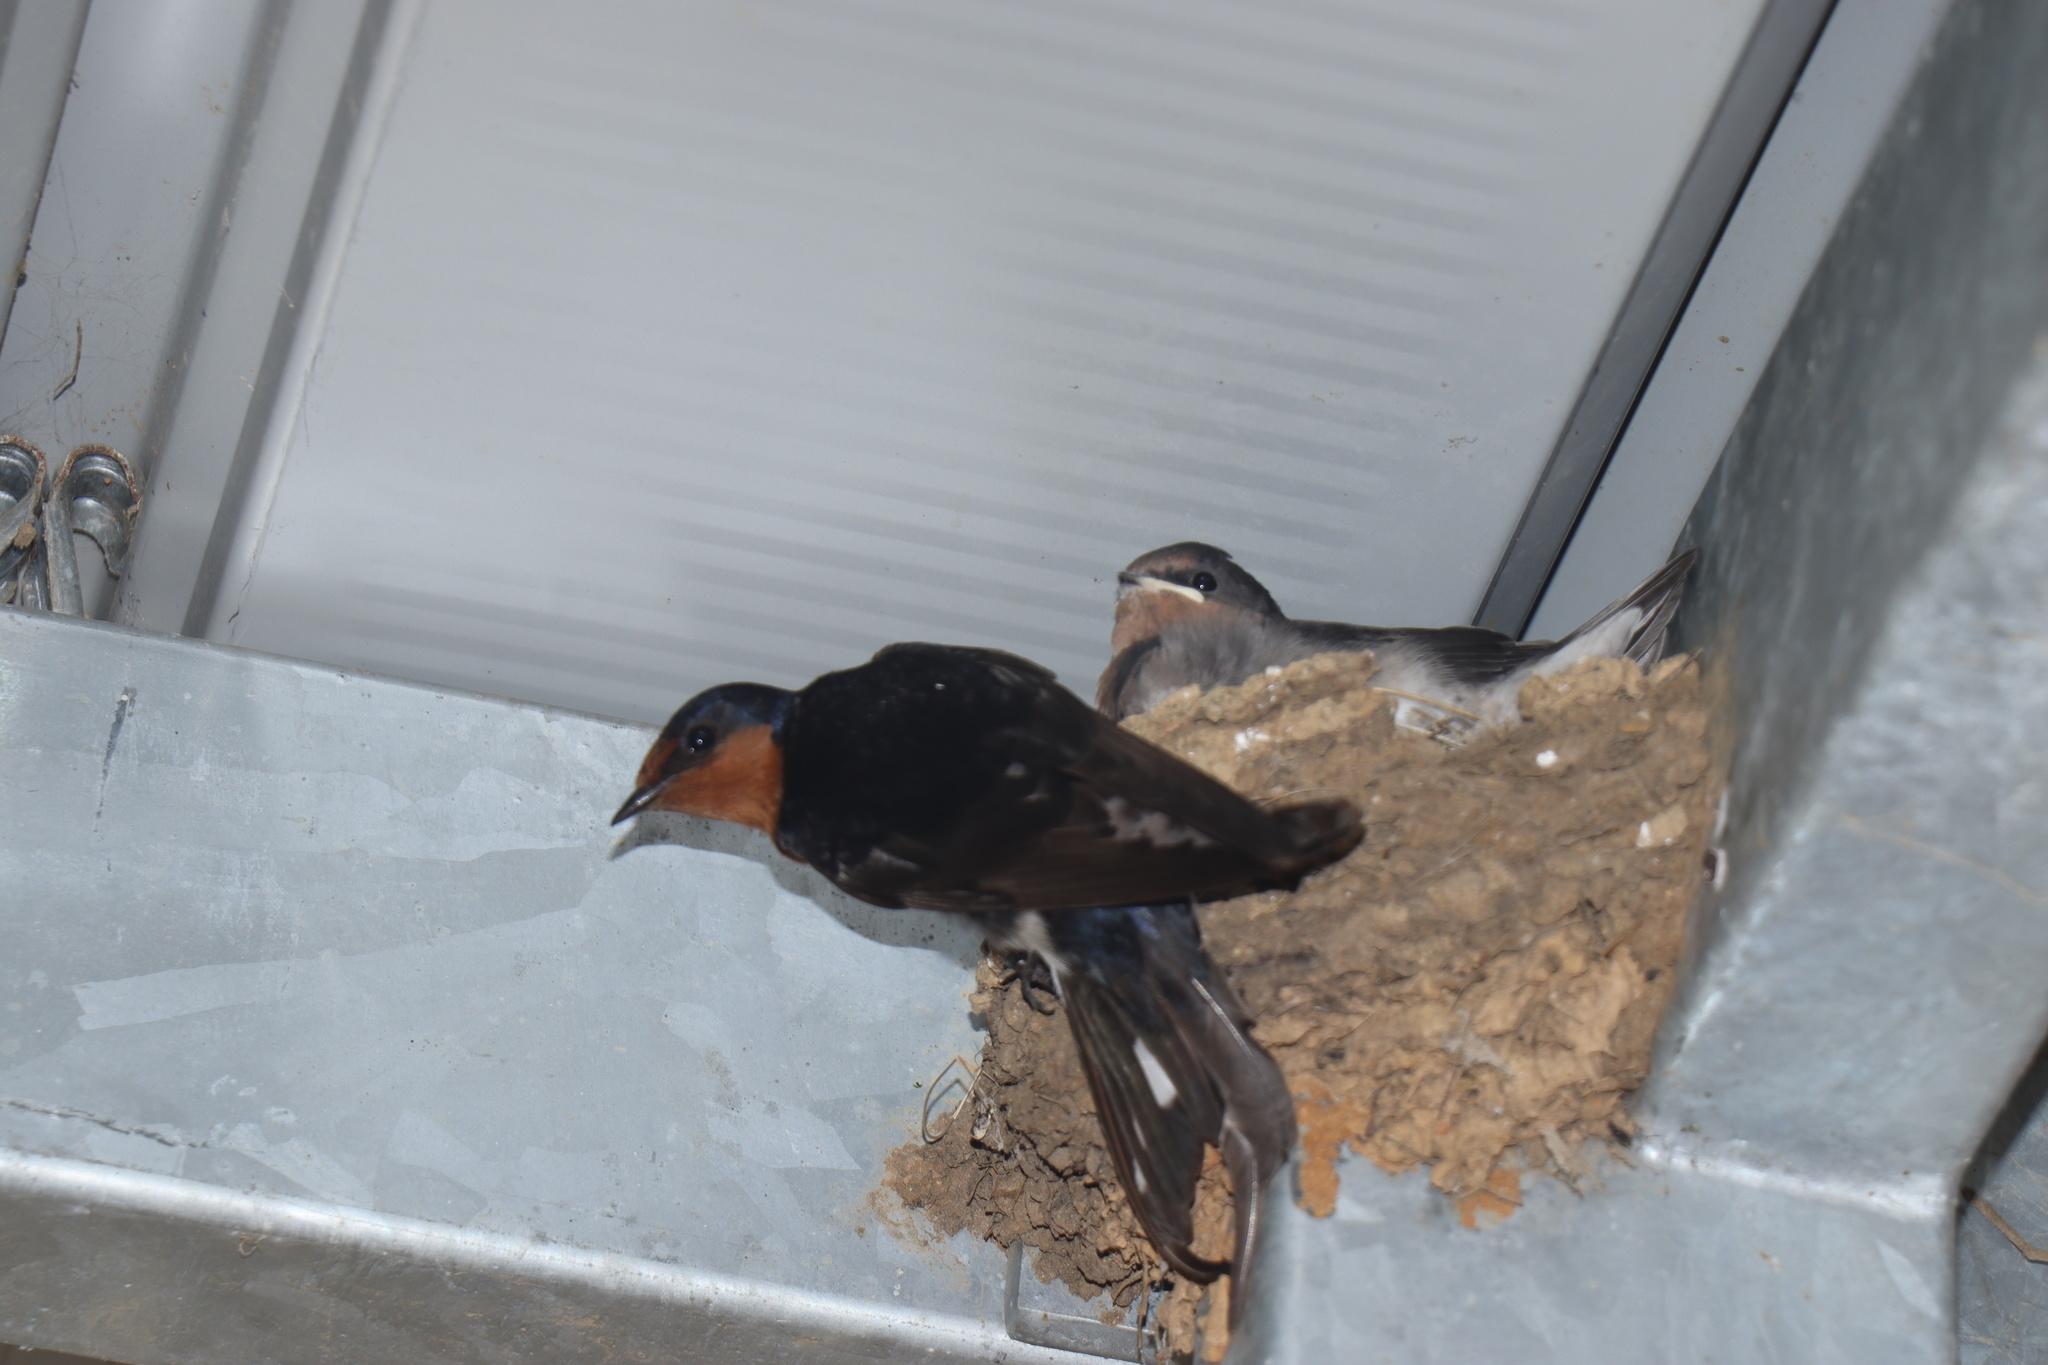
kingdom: Animalia
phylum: Chordata
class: Aves
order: Passeriformes
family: Hirundinidae
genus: Hirundo
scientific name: Hirundo neoxena
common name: Welcome swallow
